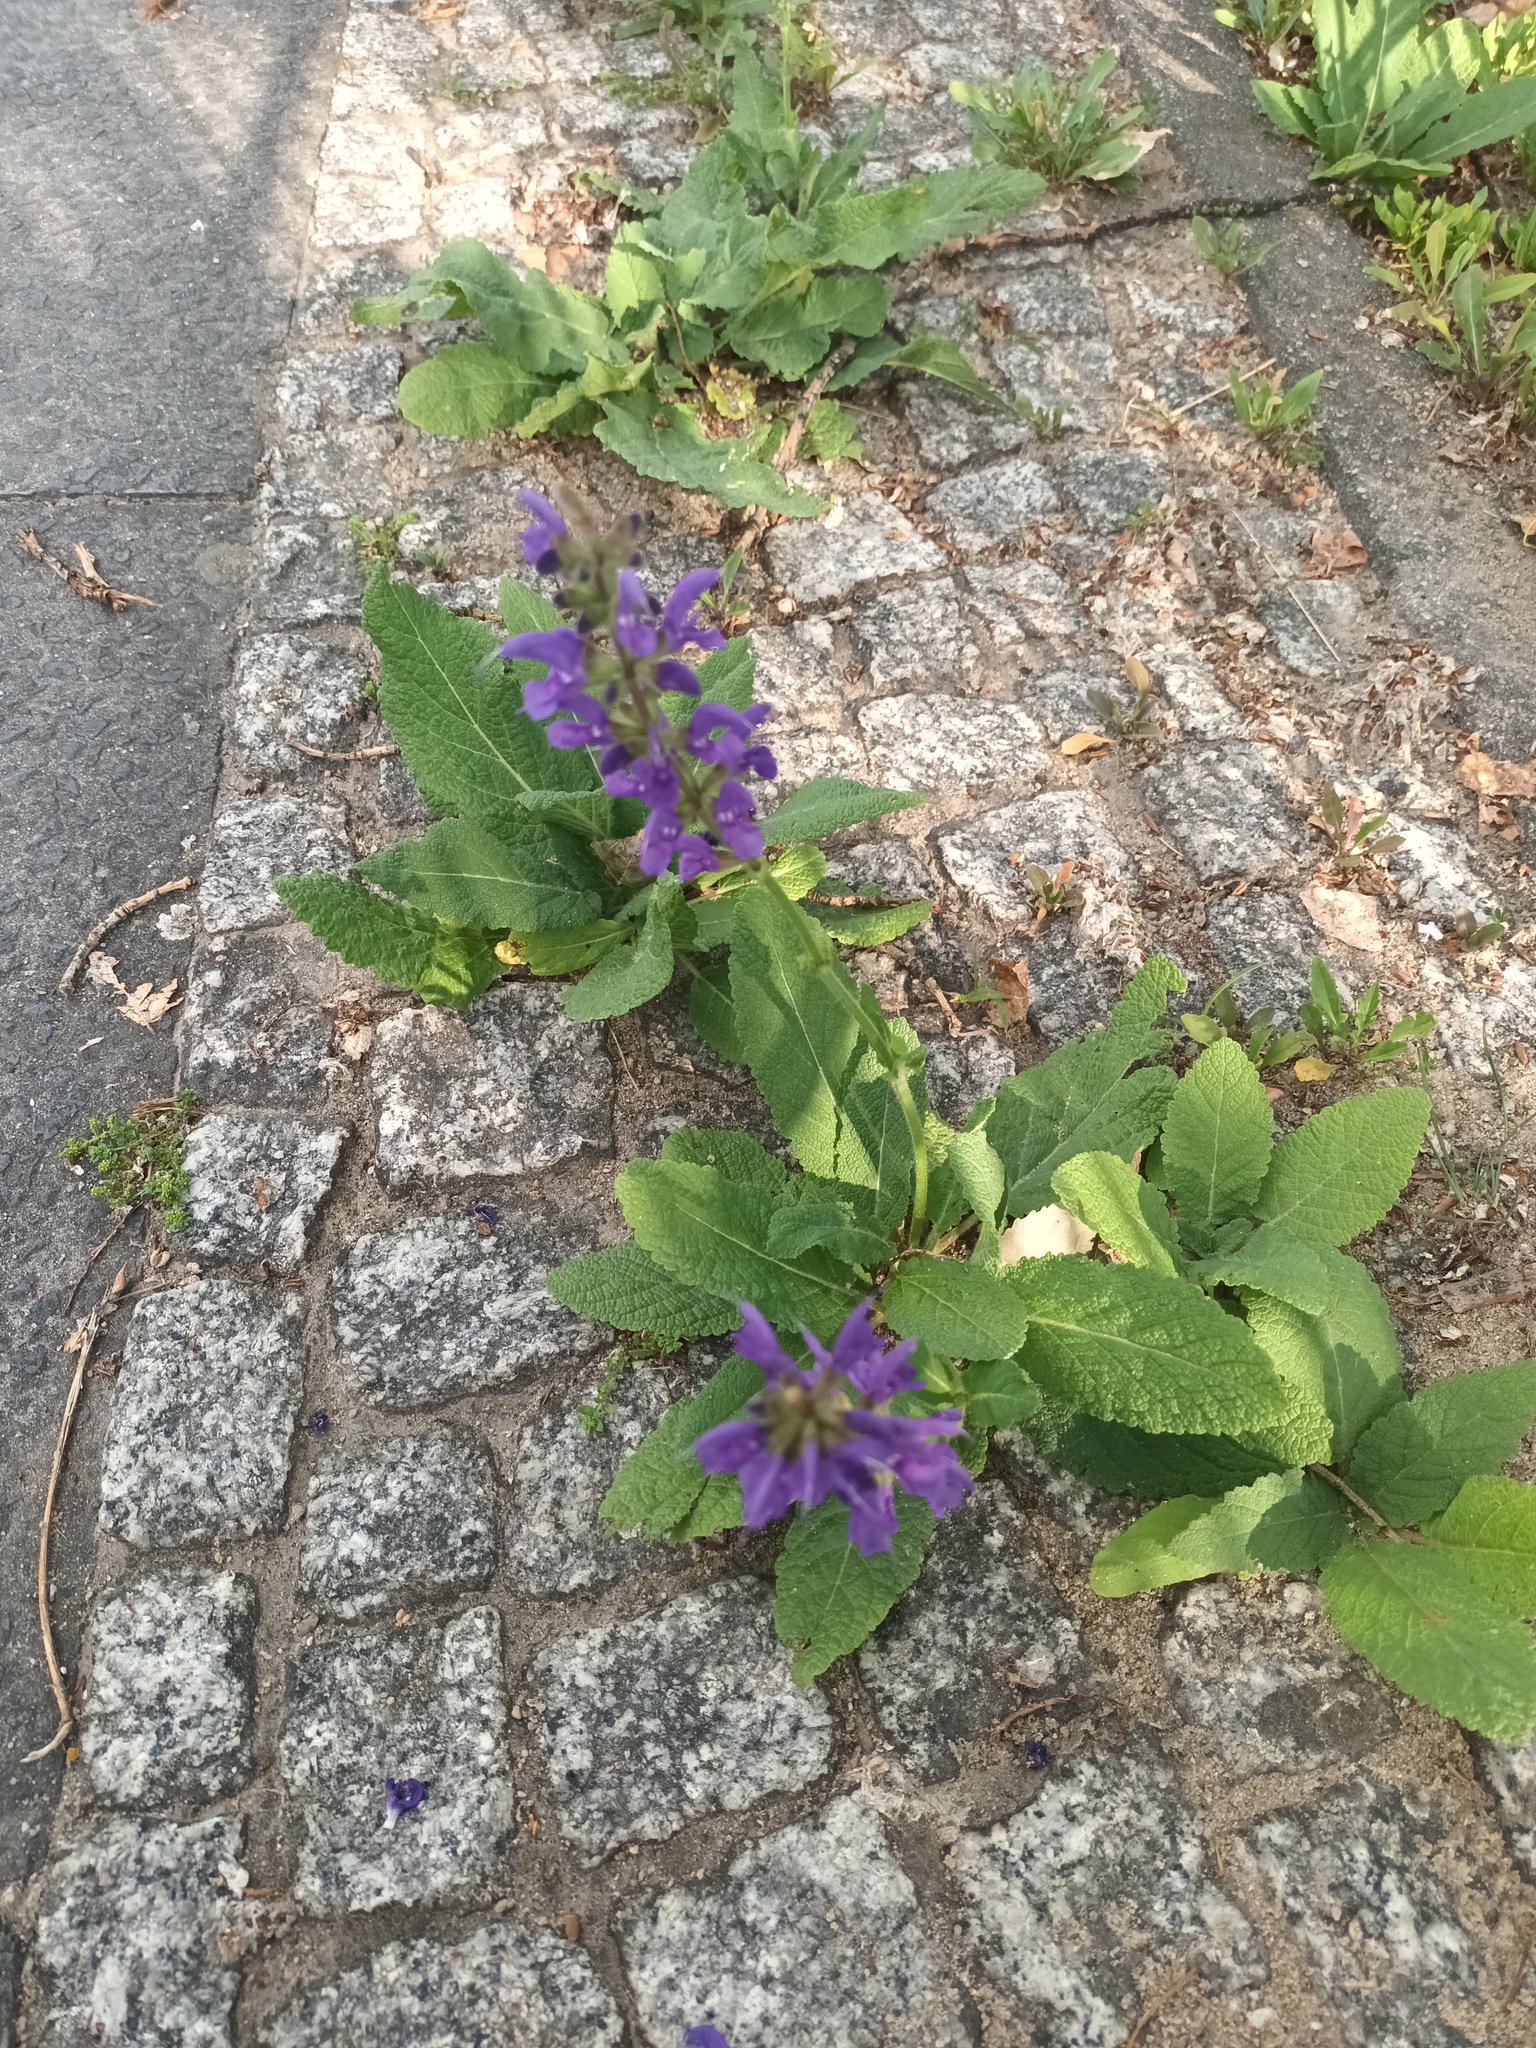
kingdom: Plantae
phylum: Tracheophyta
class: Magnoliopsida
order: Lamiales
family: Lamiaceae
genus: Salvia
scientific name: Salvia pratensis
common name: Meadow sage
